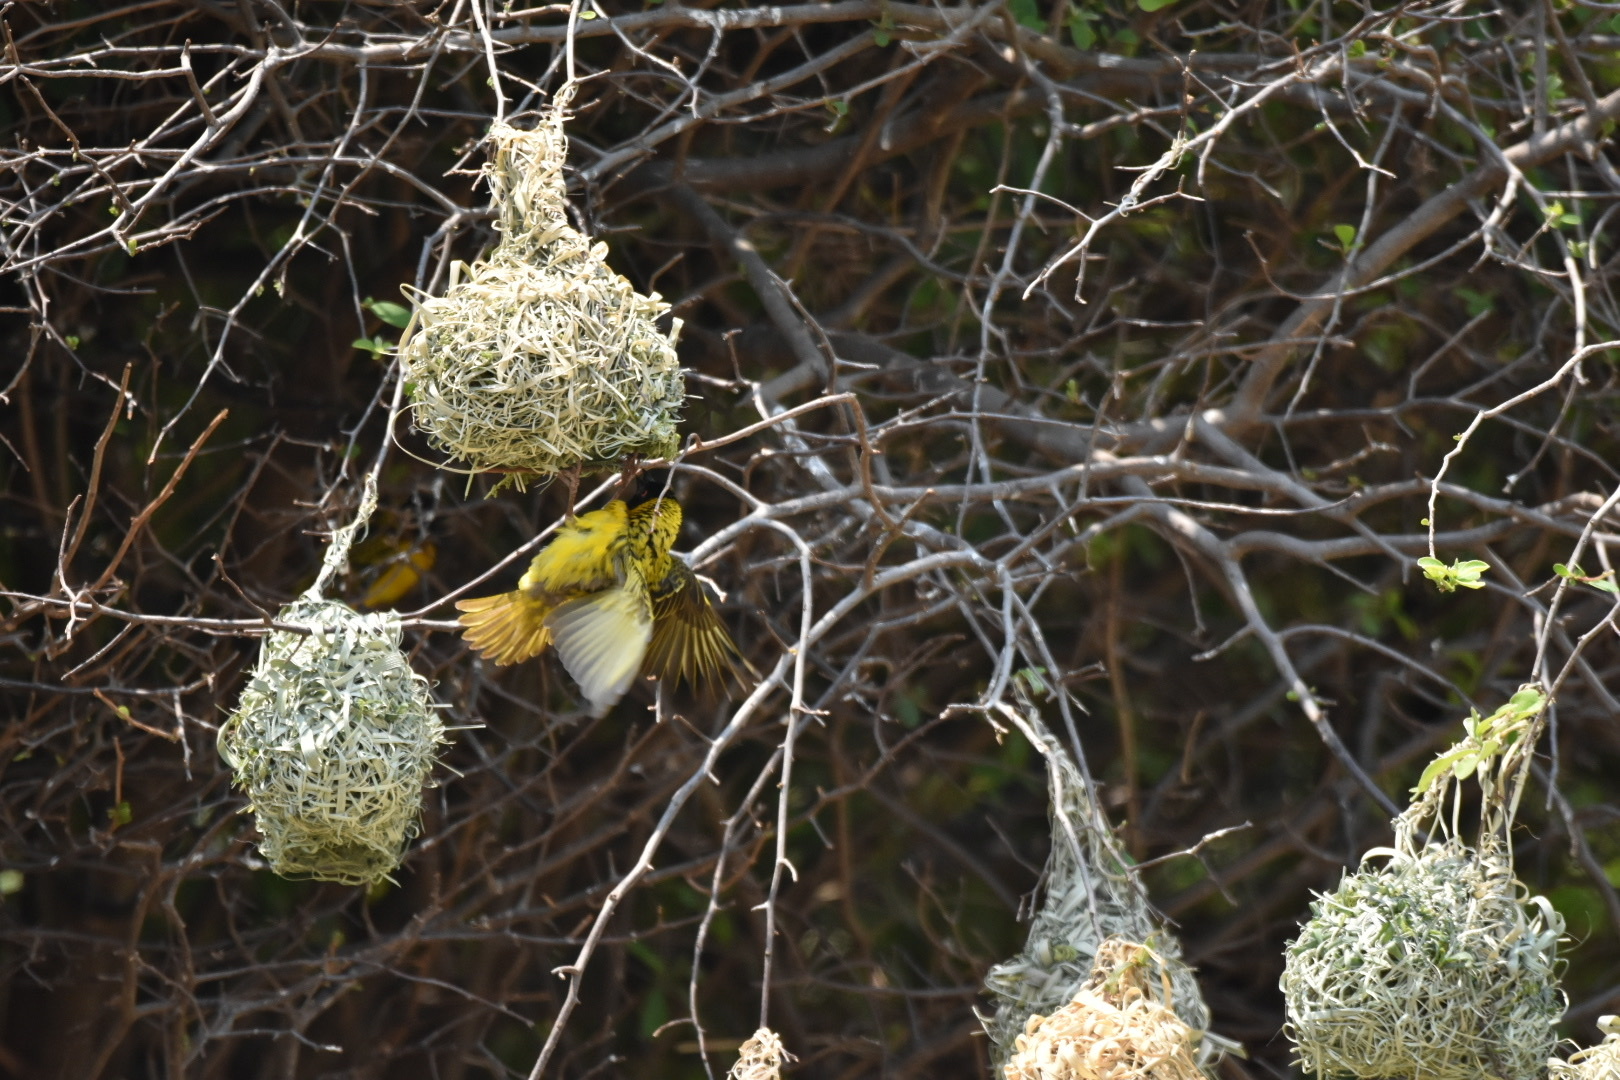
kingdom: Animalia
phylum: Chordata
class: Aves
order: Passeriformes
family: Ploceidae
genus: Ploceus
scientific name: Ploceus velatus
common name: Southern masked weaver
